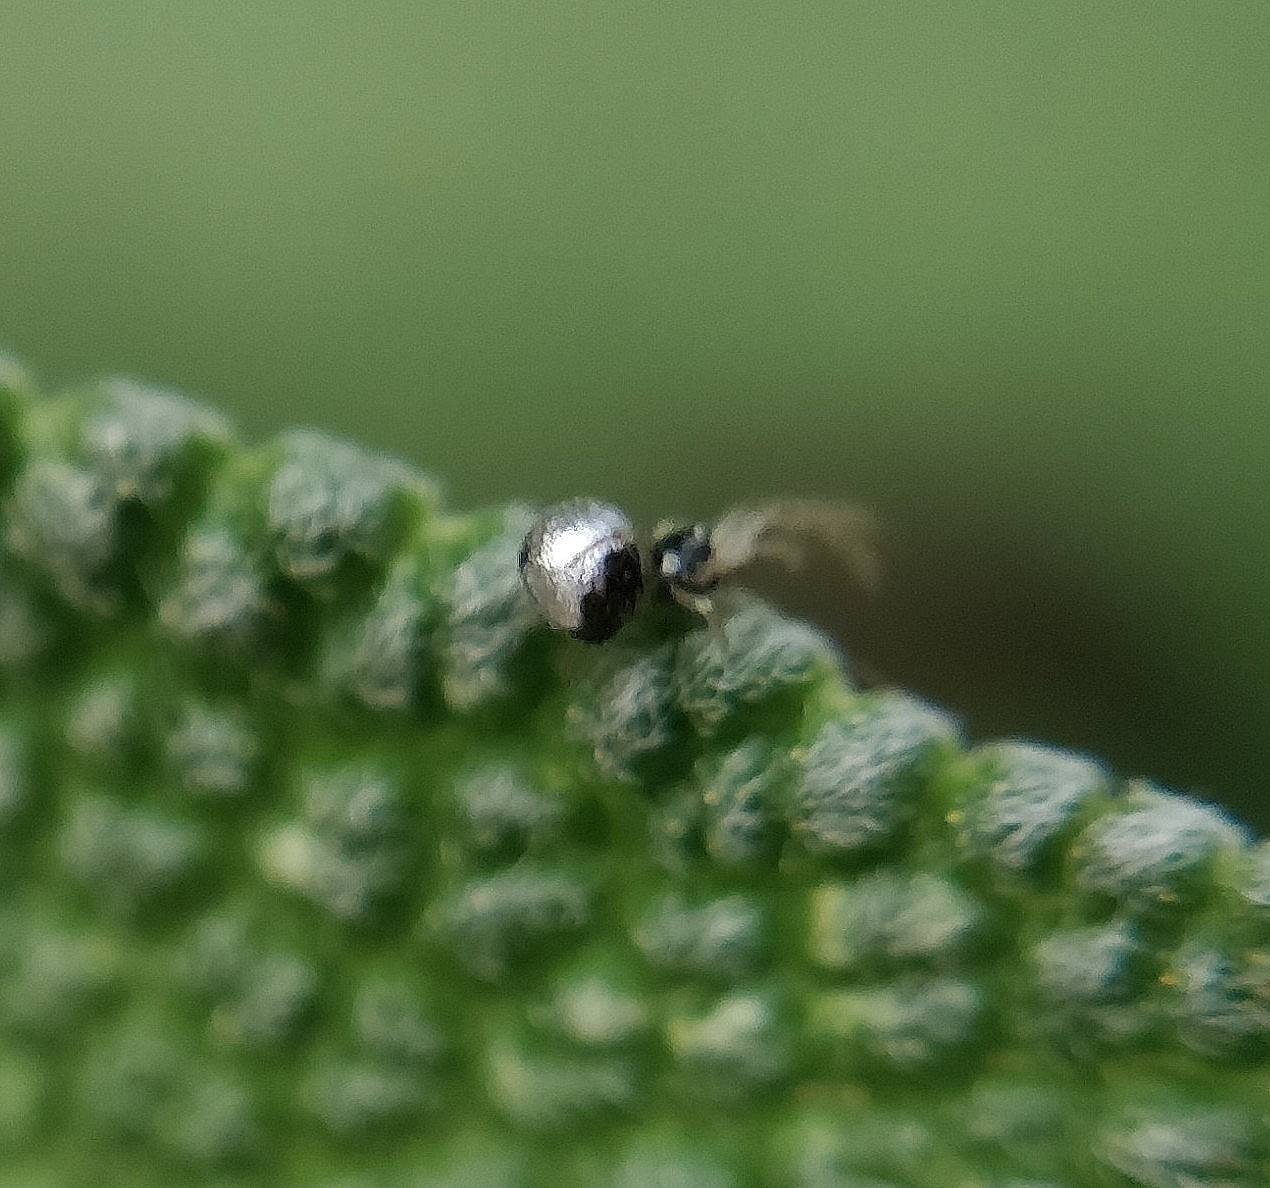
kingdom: Animalia
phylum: Arthropoda
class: Arachnida
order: Araneae
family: Theridiidae
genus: Argyrodes
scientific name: Argyrodes argyrodes
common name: Dewdrop spider
